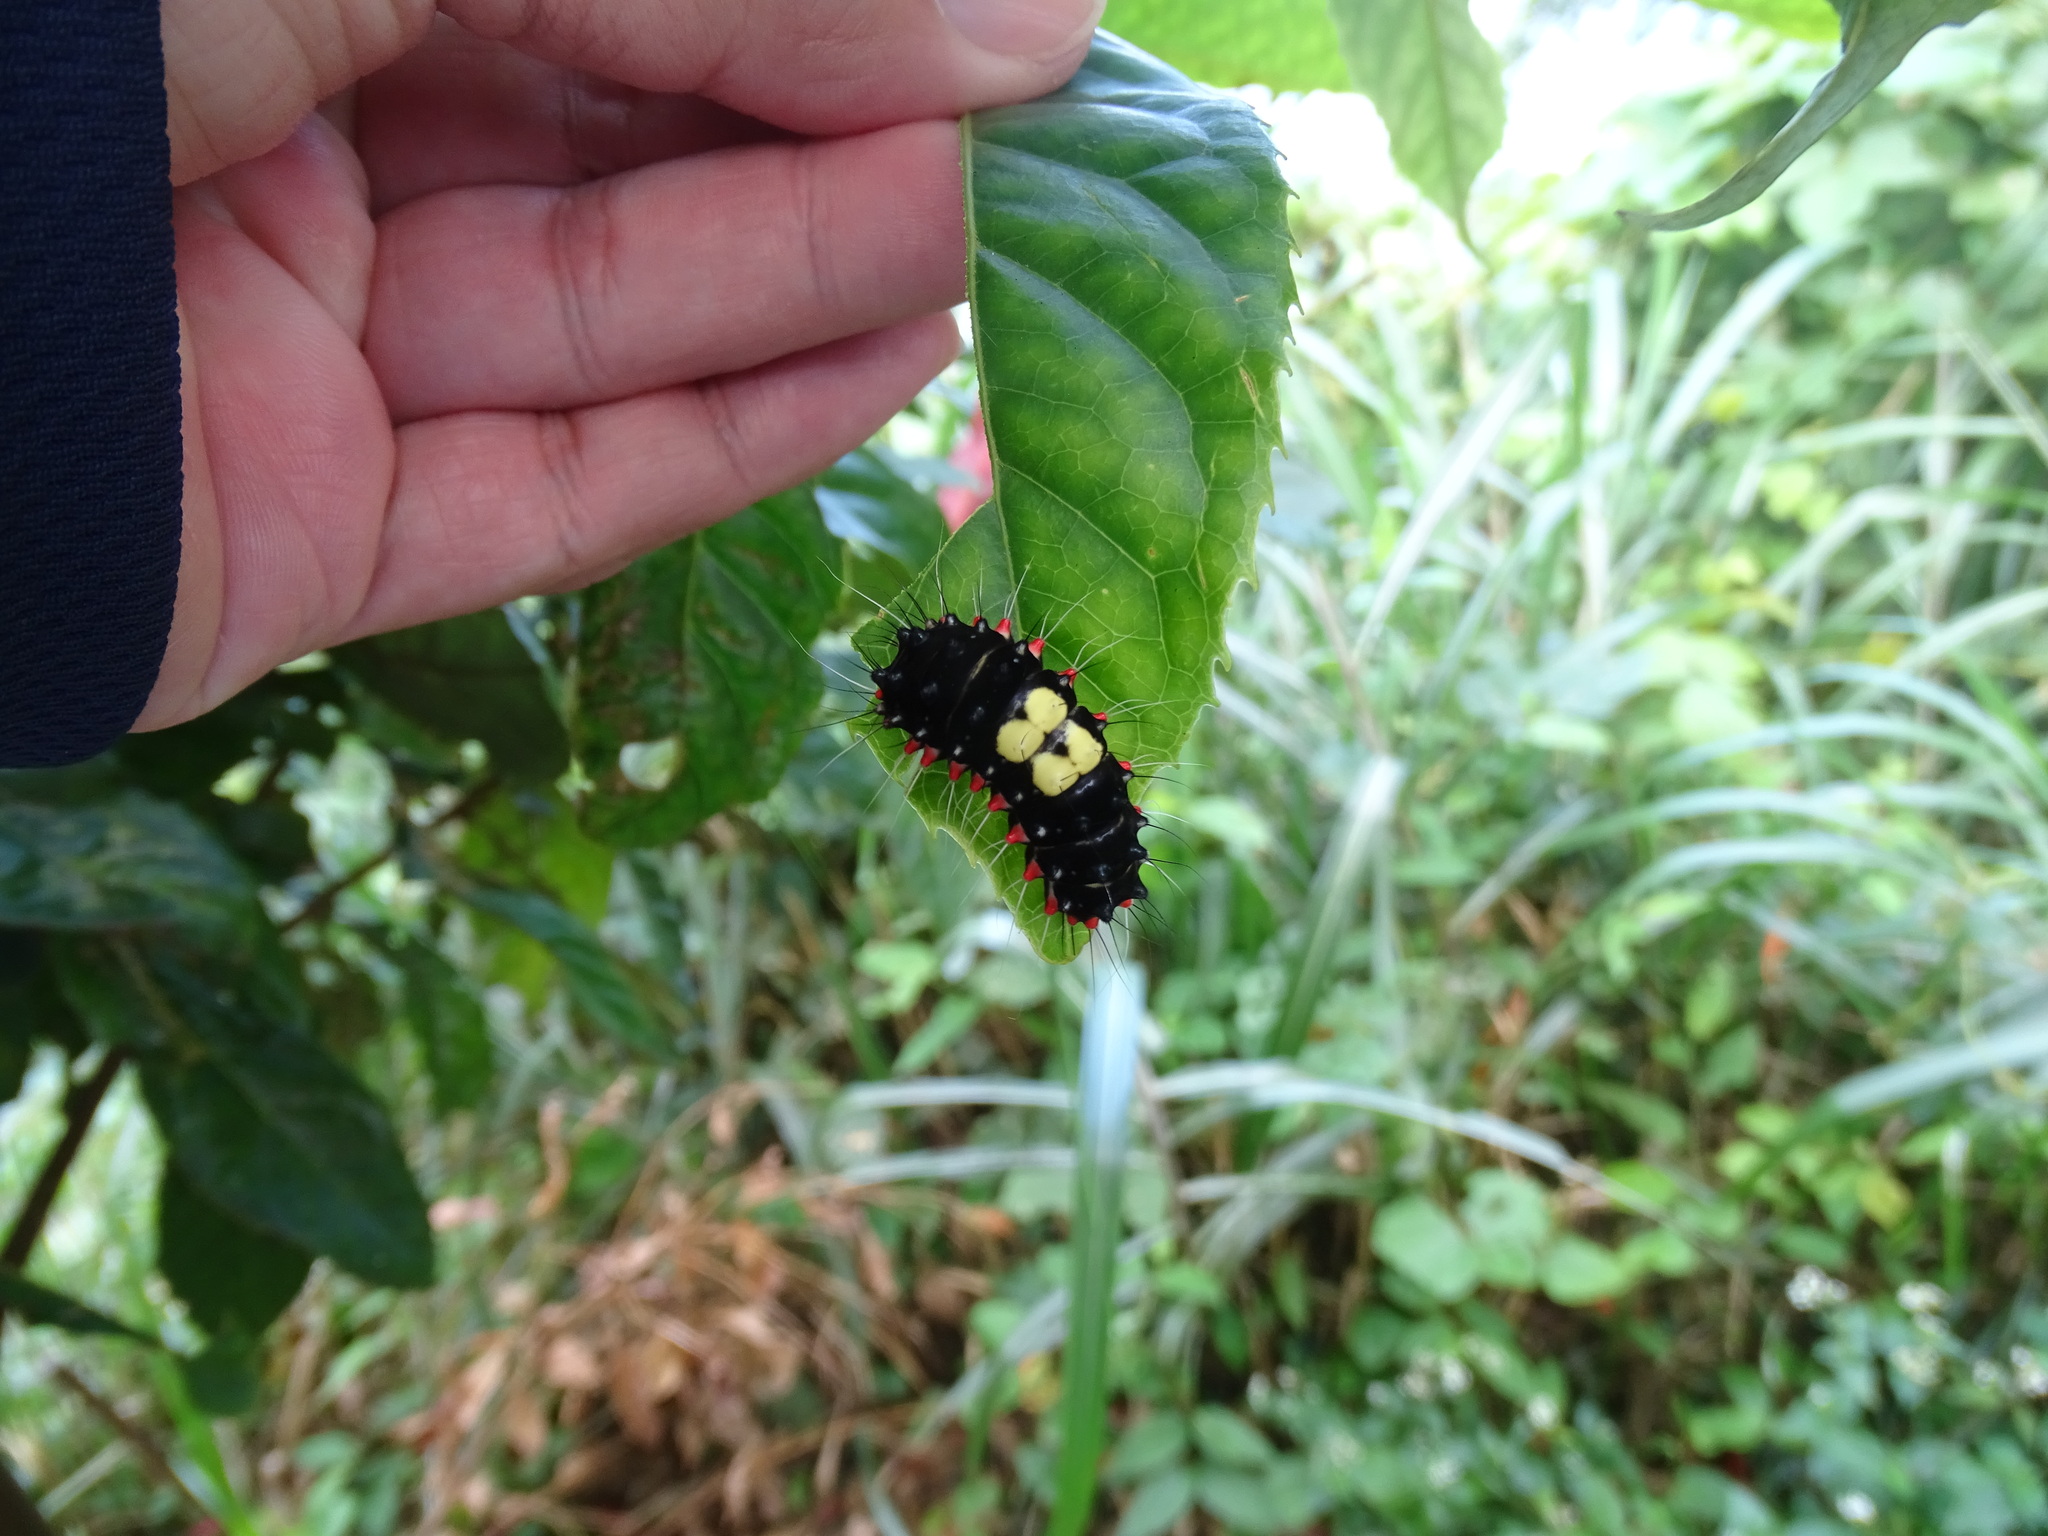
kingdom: Animalia
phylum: Arthropoda
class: Insecta
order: Lepidoptera
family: Zygaenidae
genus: Erasmia
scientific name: Erasmia pulchella
